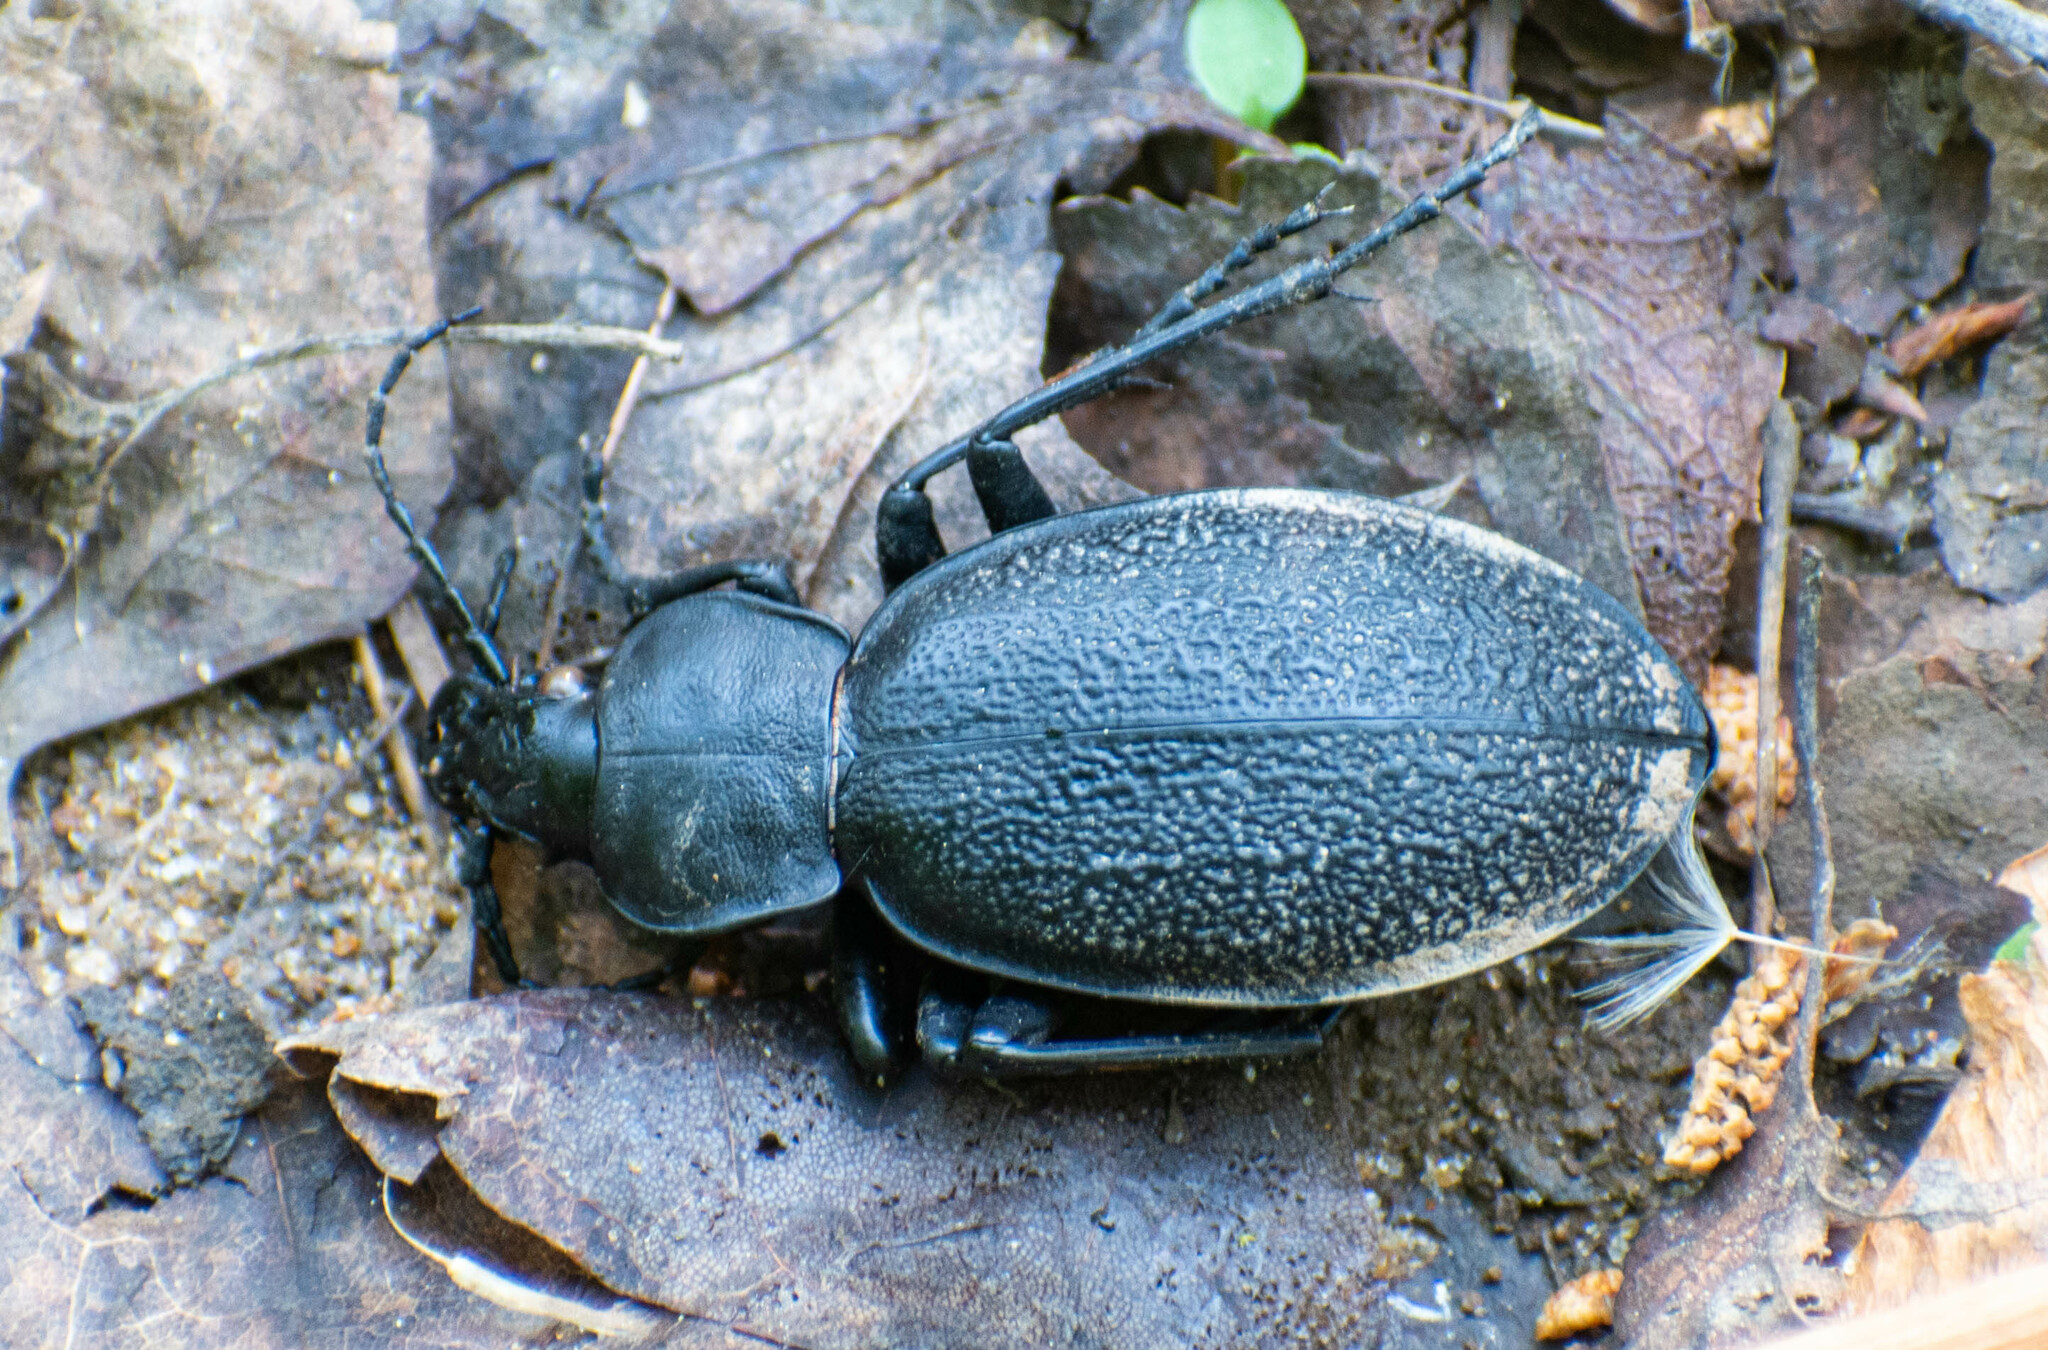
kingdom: Animalia
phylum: Arthropoda
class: Insecta
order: Coleoptera
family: Carabidae
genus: Carabus
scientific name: Carabus coriaceus
